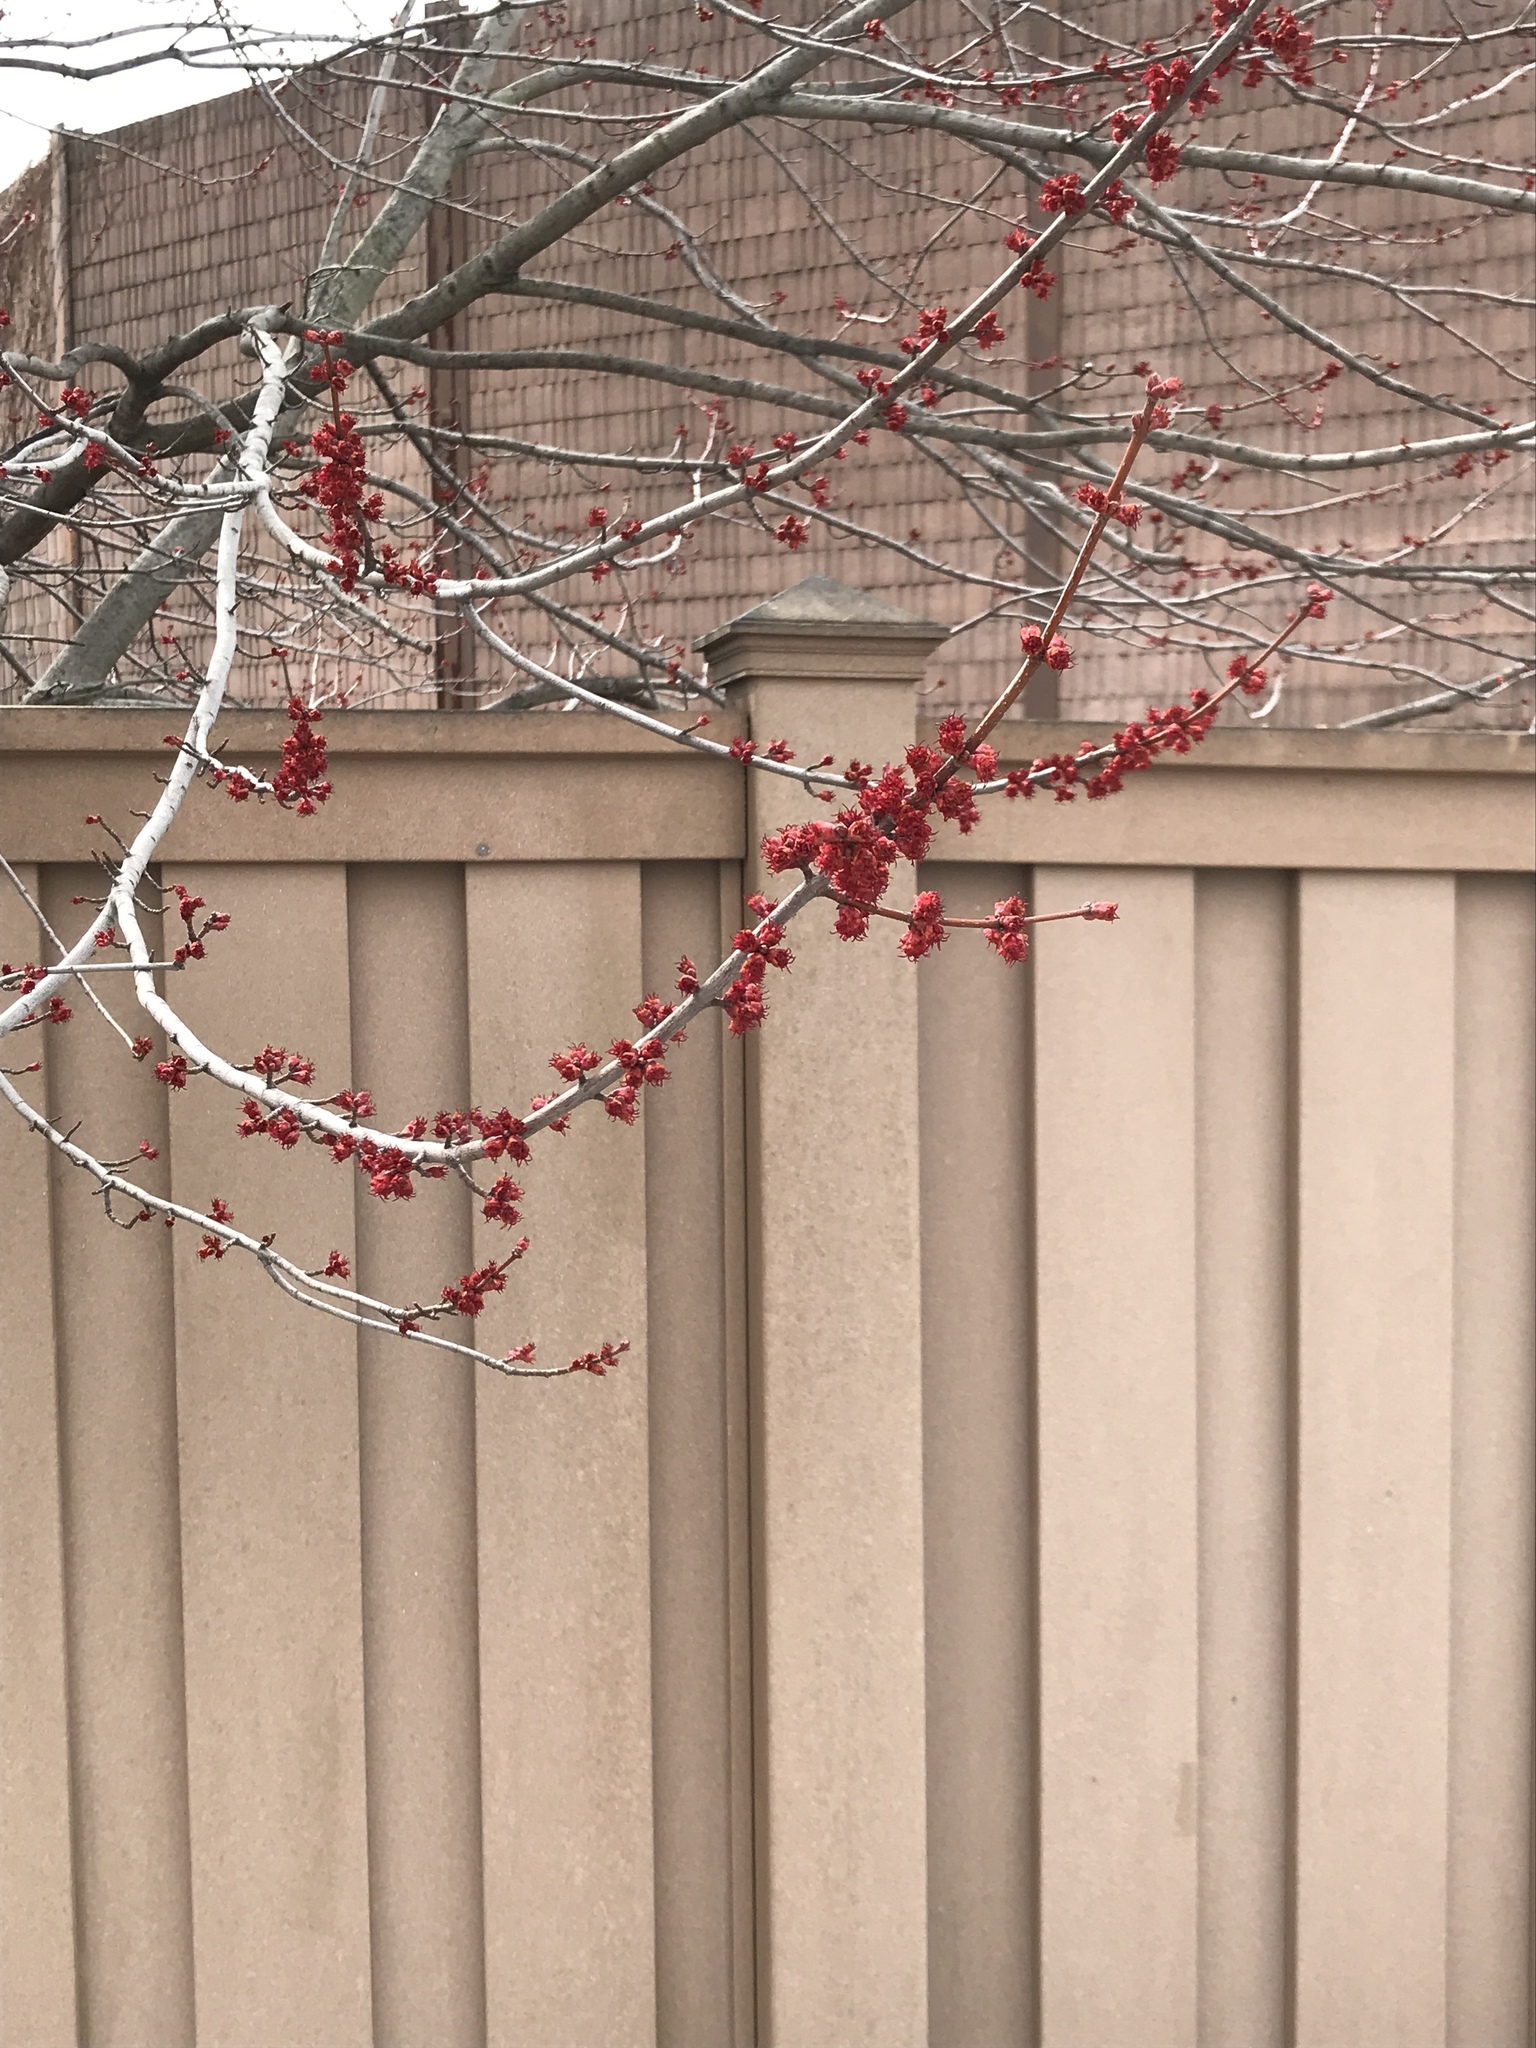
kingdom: Plantae
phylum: Tracheophyta
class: Magnoliopsida
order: Sapindales
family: Sapindaceae
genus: Acer
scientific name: Acer rubrum
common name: Red maple
